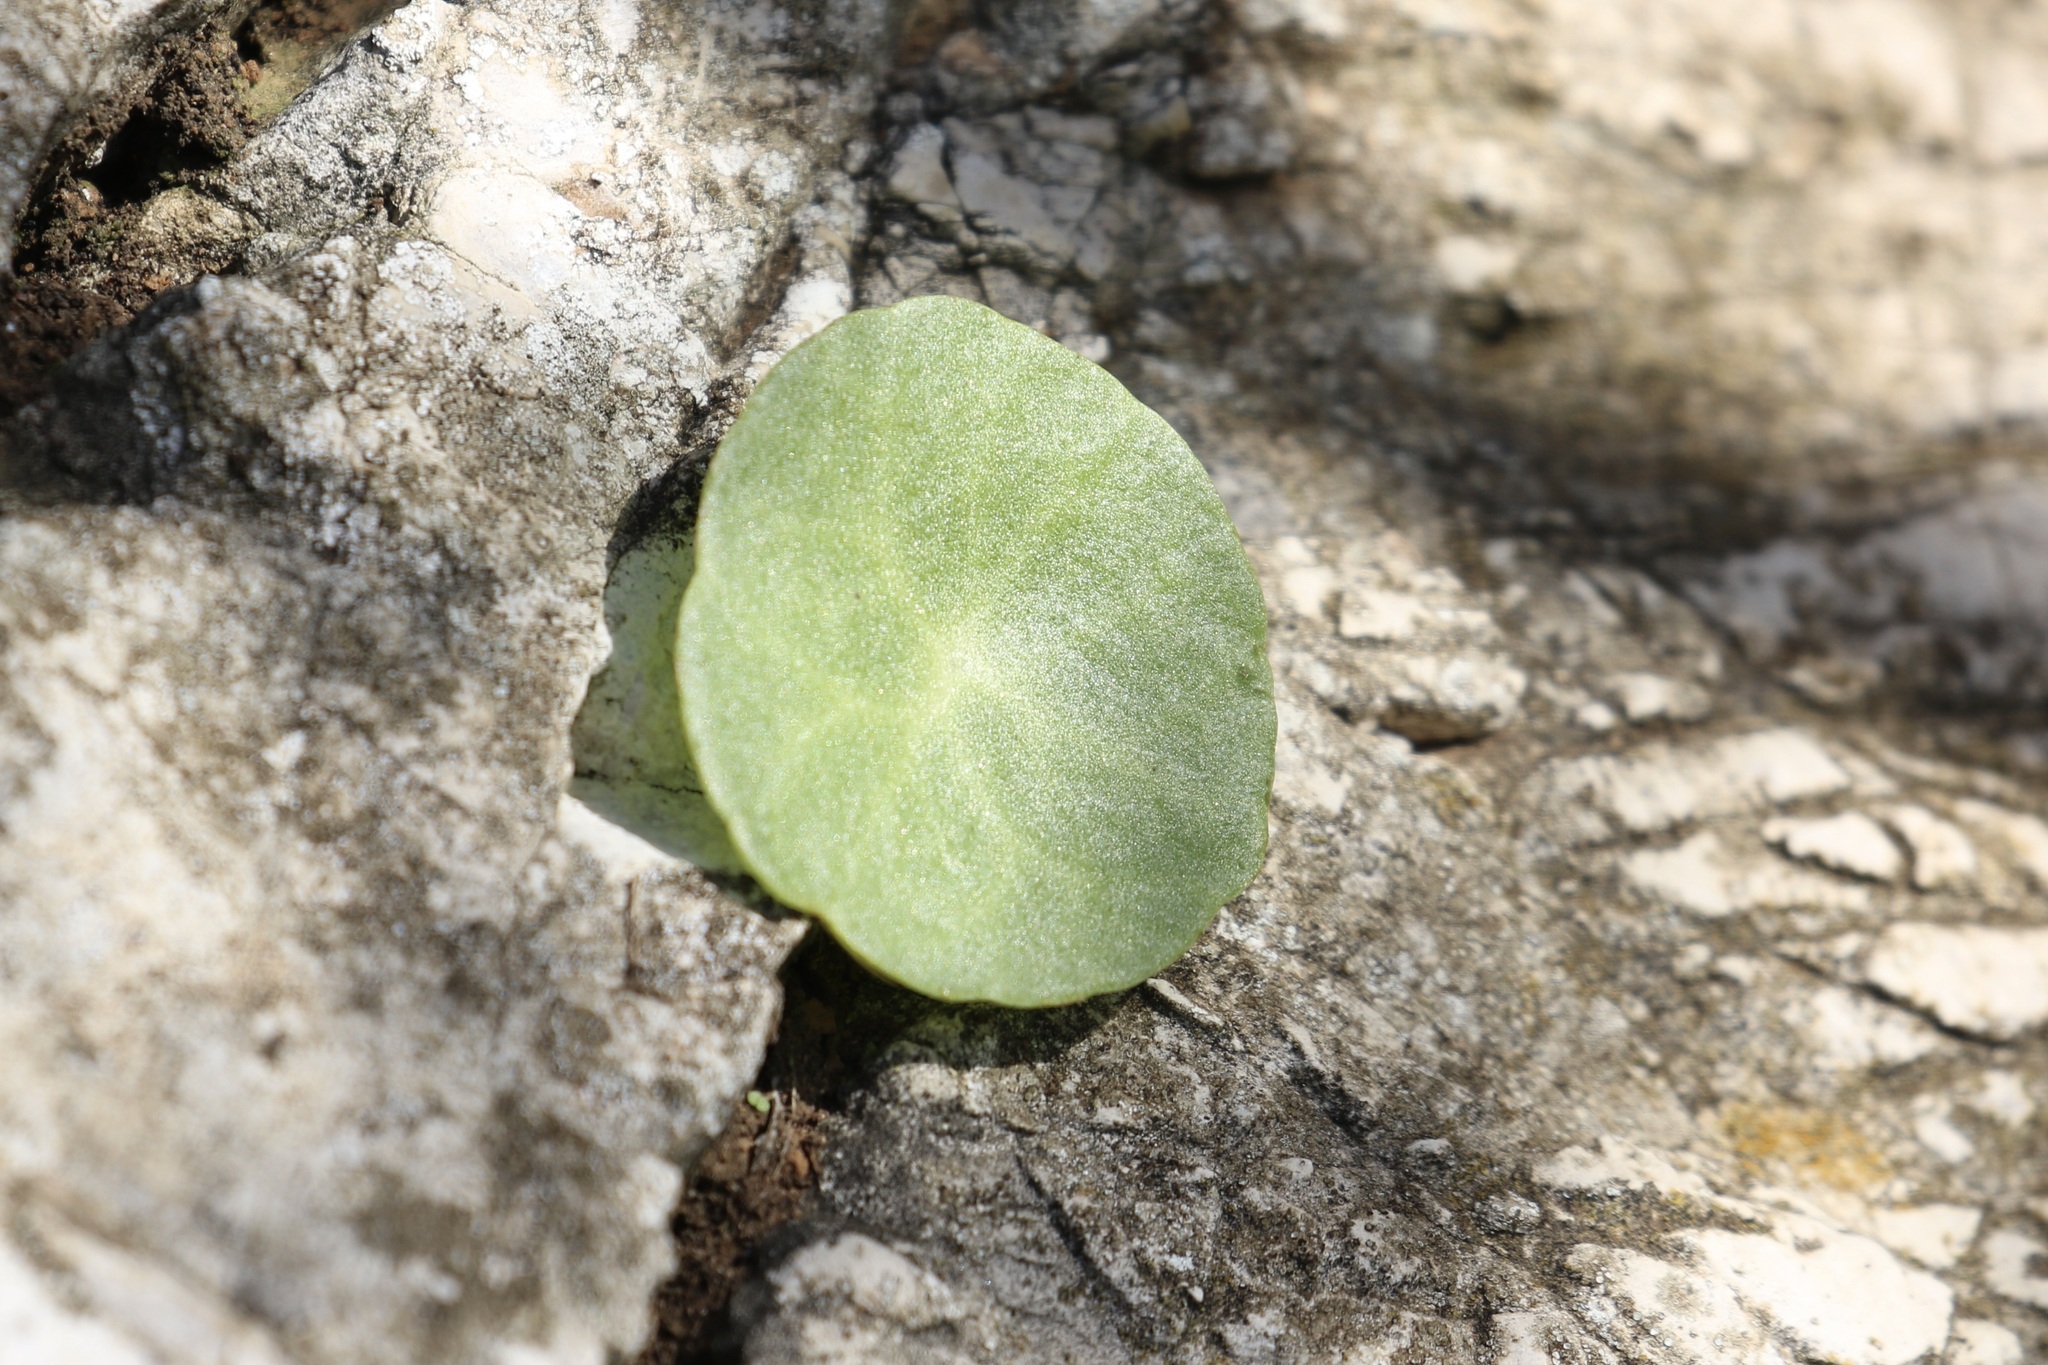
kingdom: Plantae
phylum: Tracheophyta
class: Magnoliopsida
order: Saxifragales
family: Crassulaceae
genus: Umbilicus
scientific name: Umbilicus rupestris
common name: Navelwort
